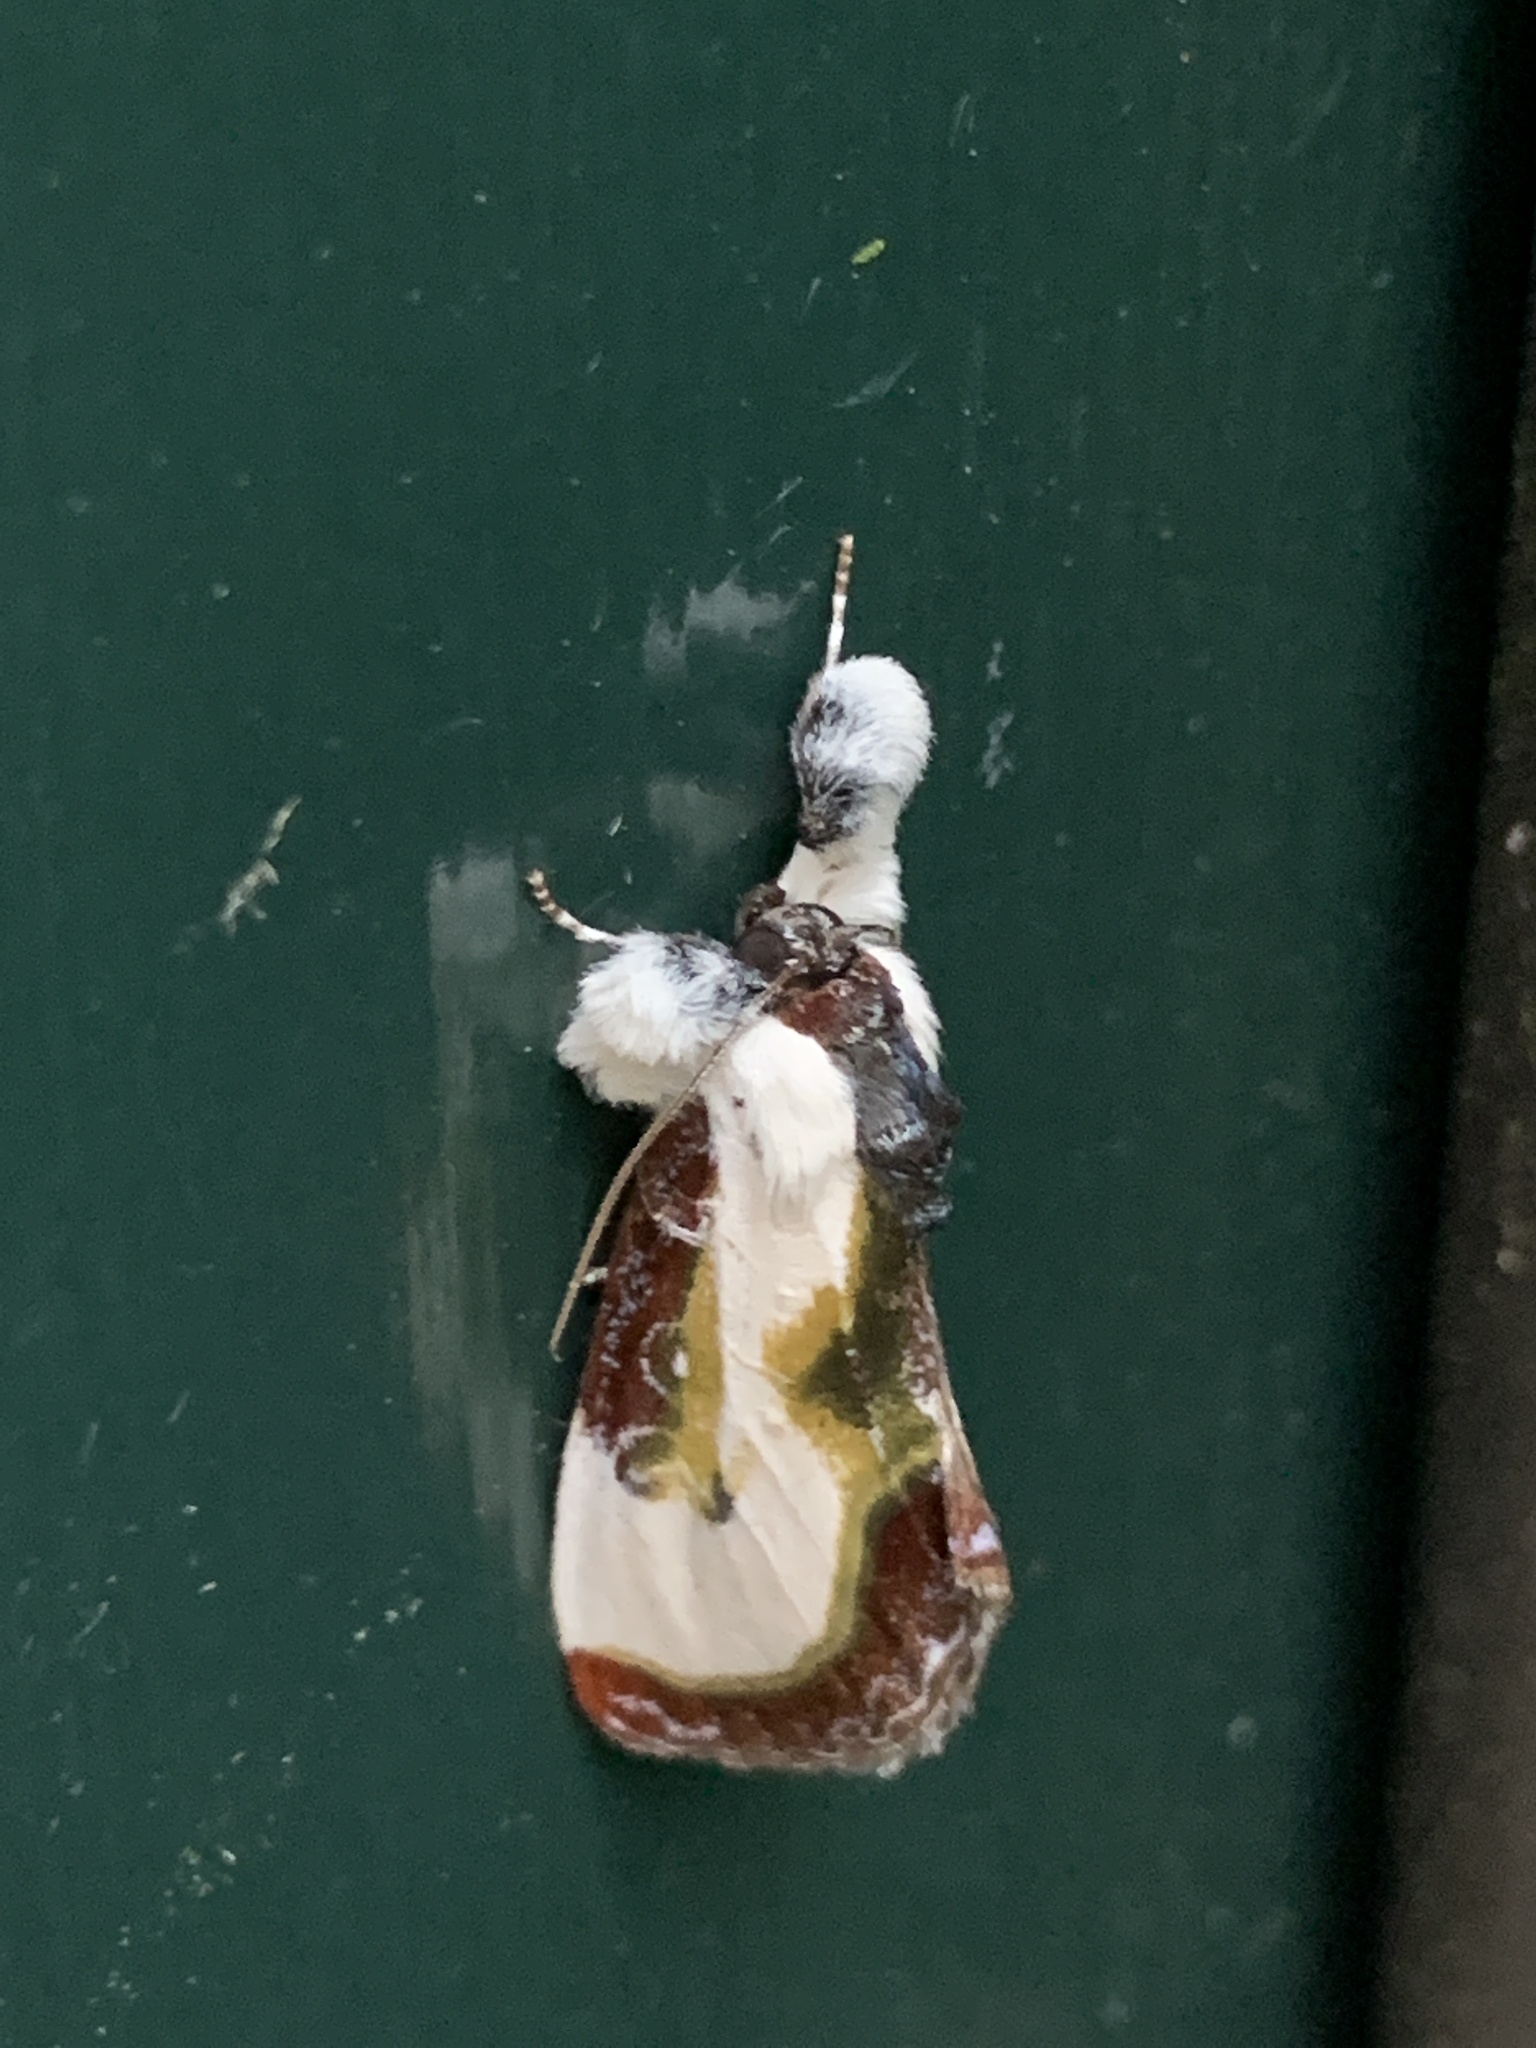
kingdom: Animalia
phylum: Arthropoda
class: Insecta
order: Lepidoptera
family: Noctuidae
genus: Eudryas
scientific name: Eudryas grata
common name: Beautiful wood-nymph
